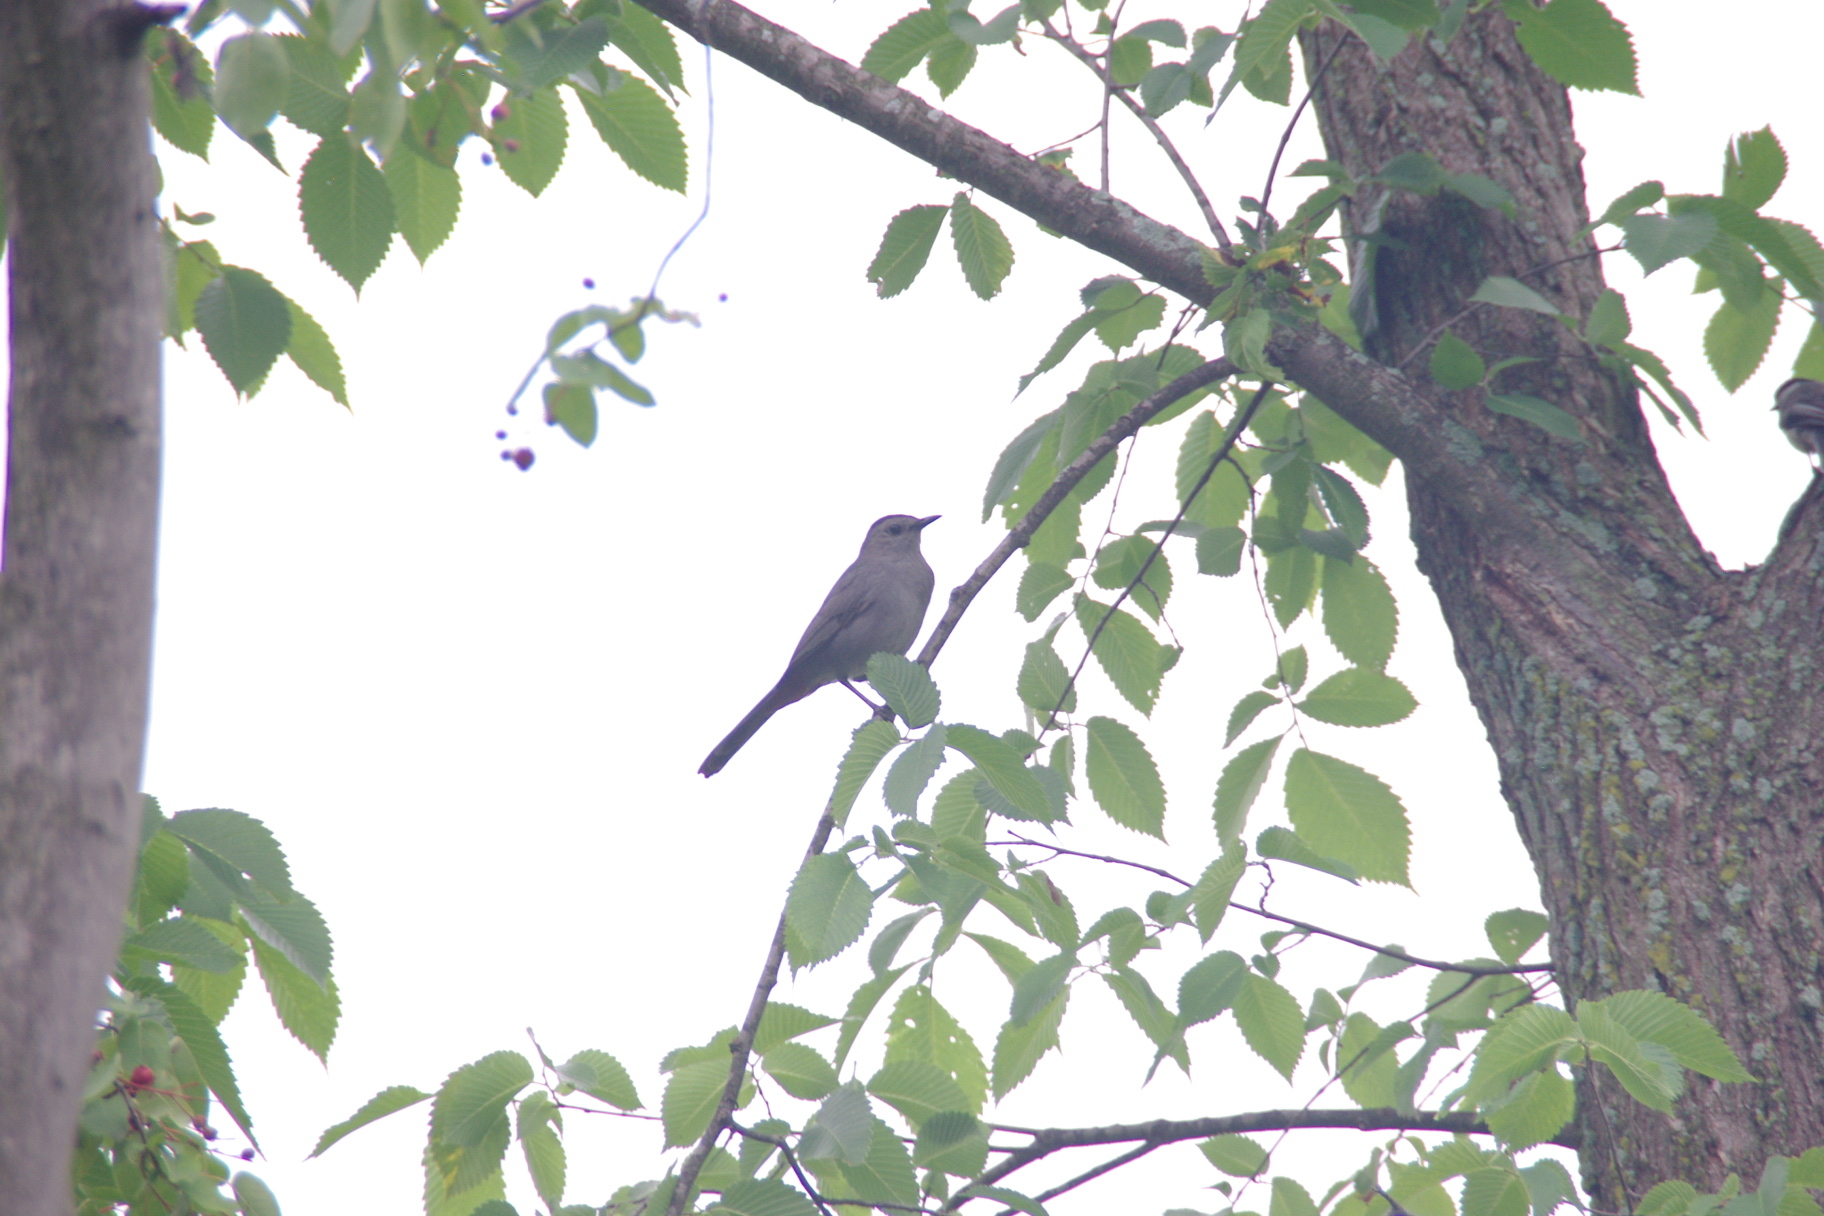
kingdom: Animalia
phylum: Chordata
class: Aves
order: Passeriformes
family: Mimidae
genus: Dumetella
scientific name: Dumetella carolinensis
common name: Gray catbird
